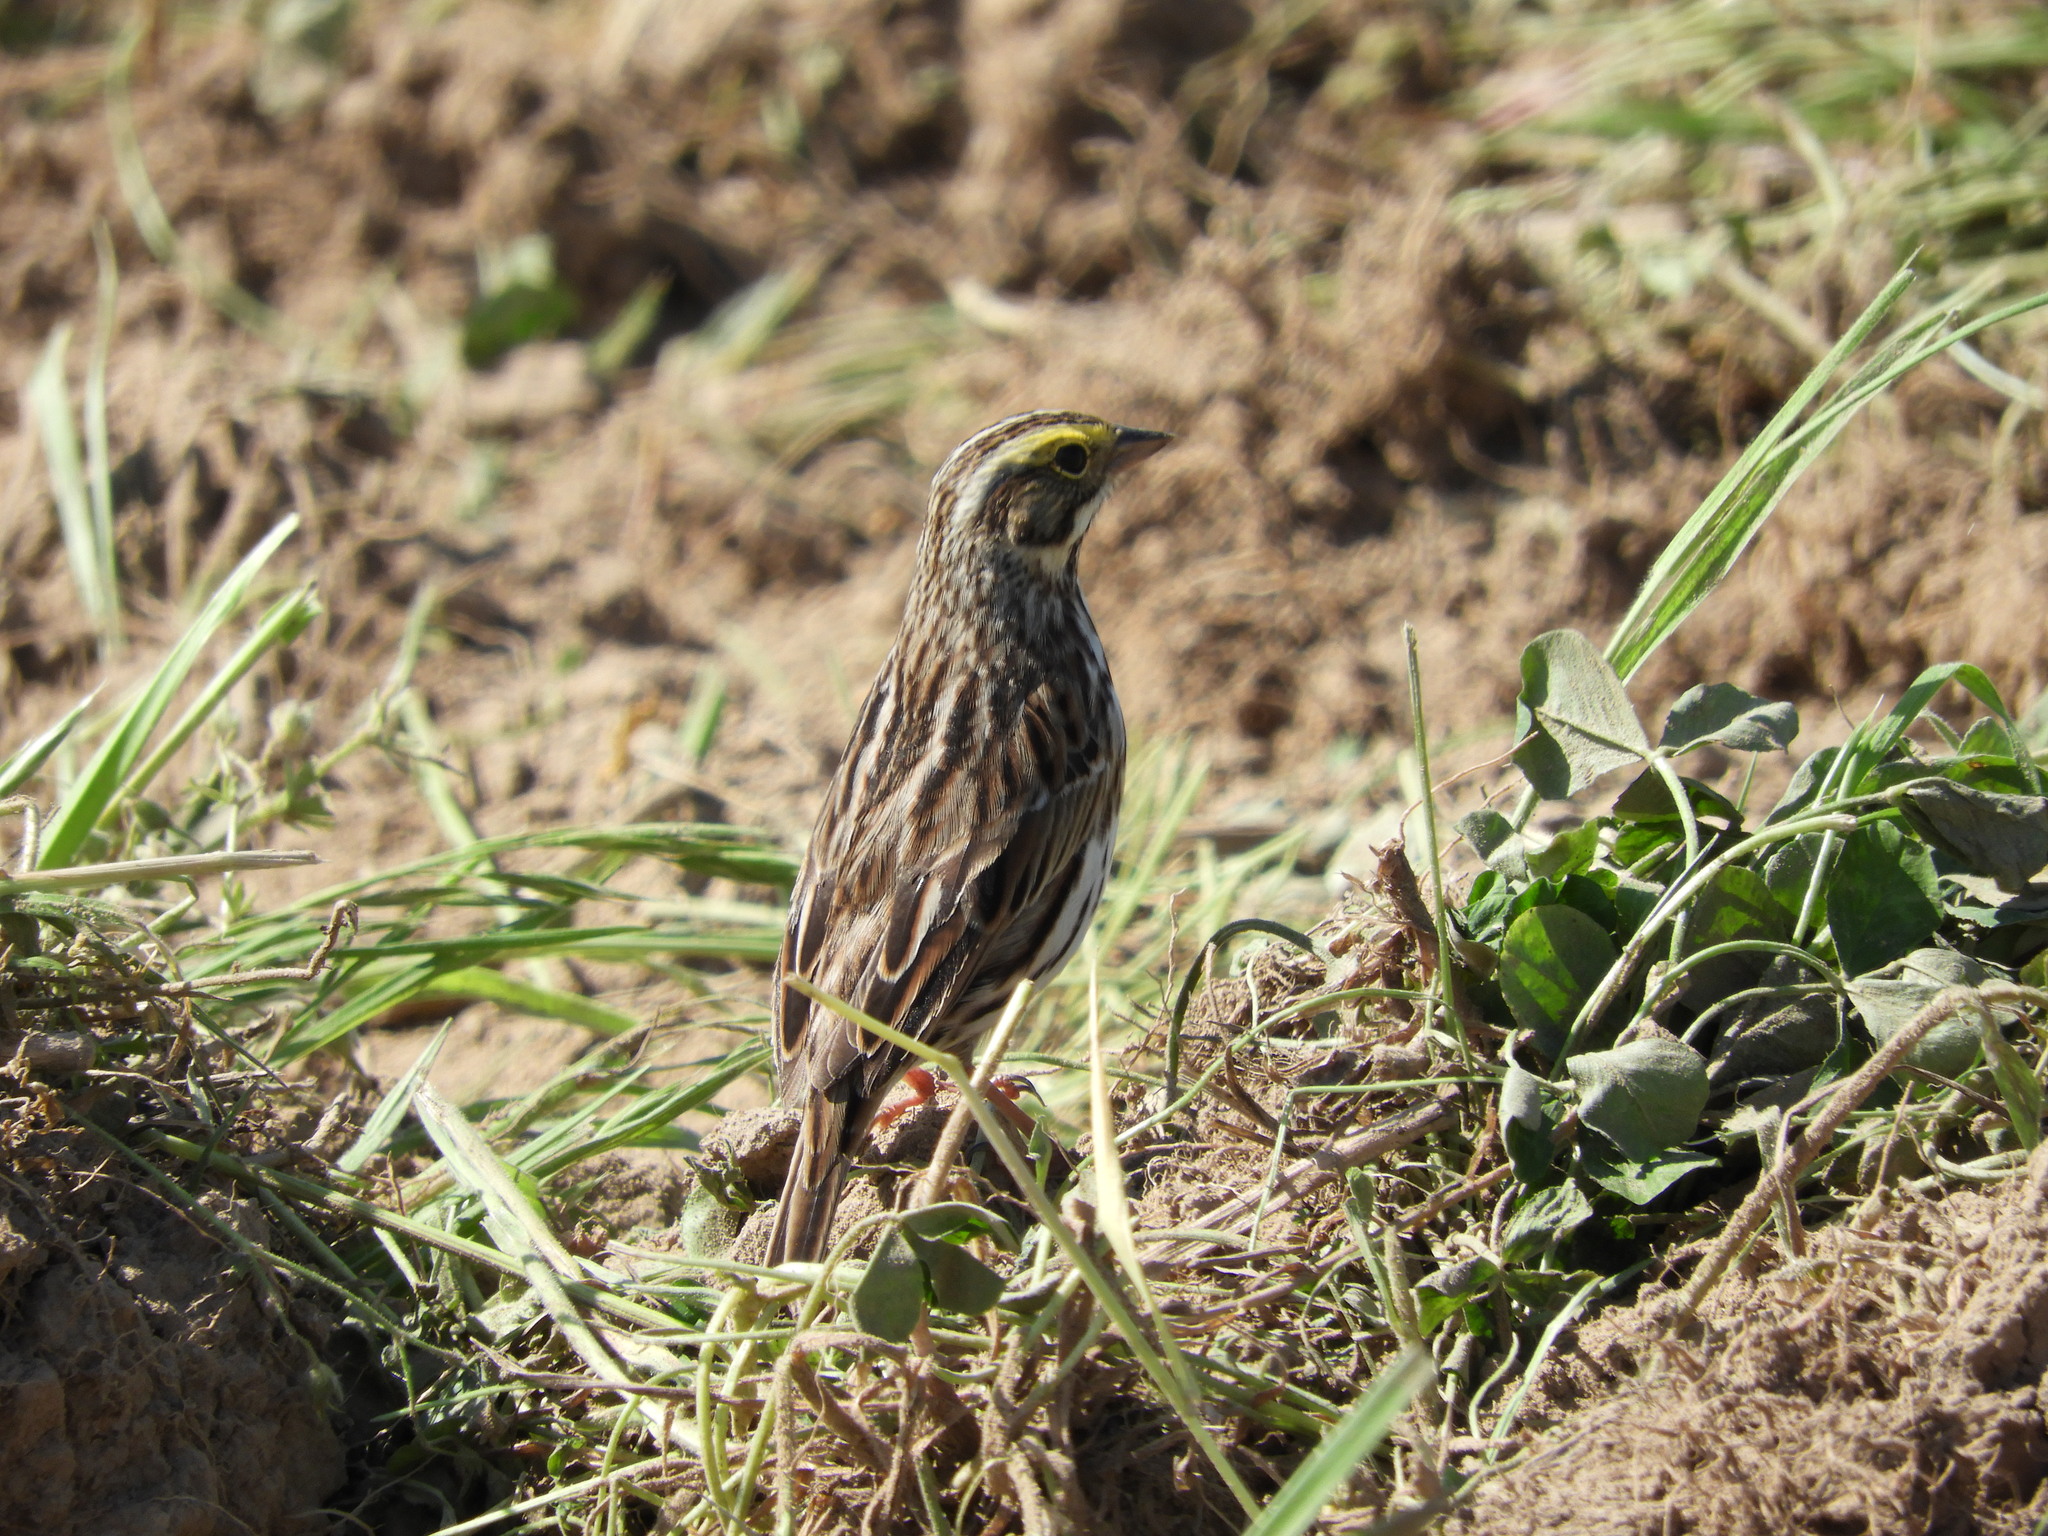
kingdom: Animalia
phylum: Chordata
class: Aves
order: Passeriformes
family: Passerellidae
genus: Passerculus
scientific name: Passerculus sandwichensis
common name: Savannah sparrow
